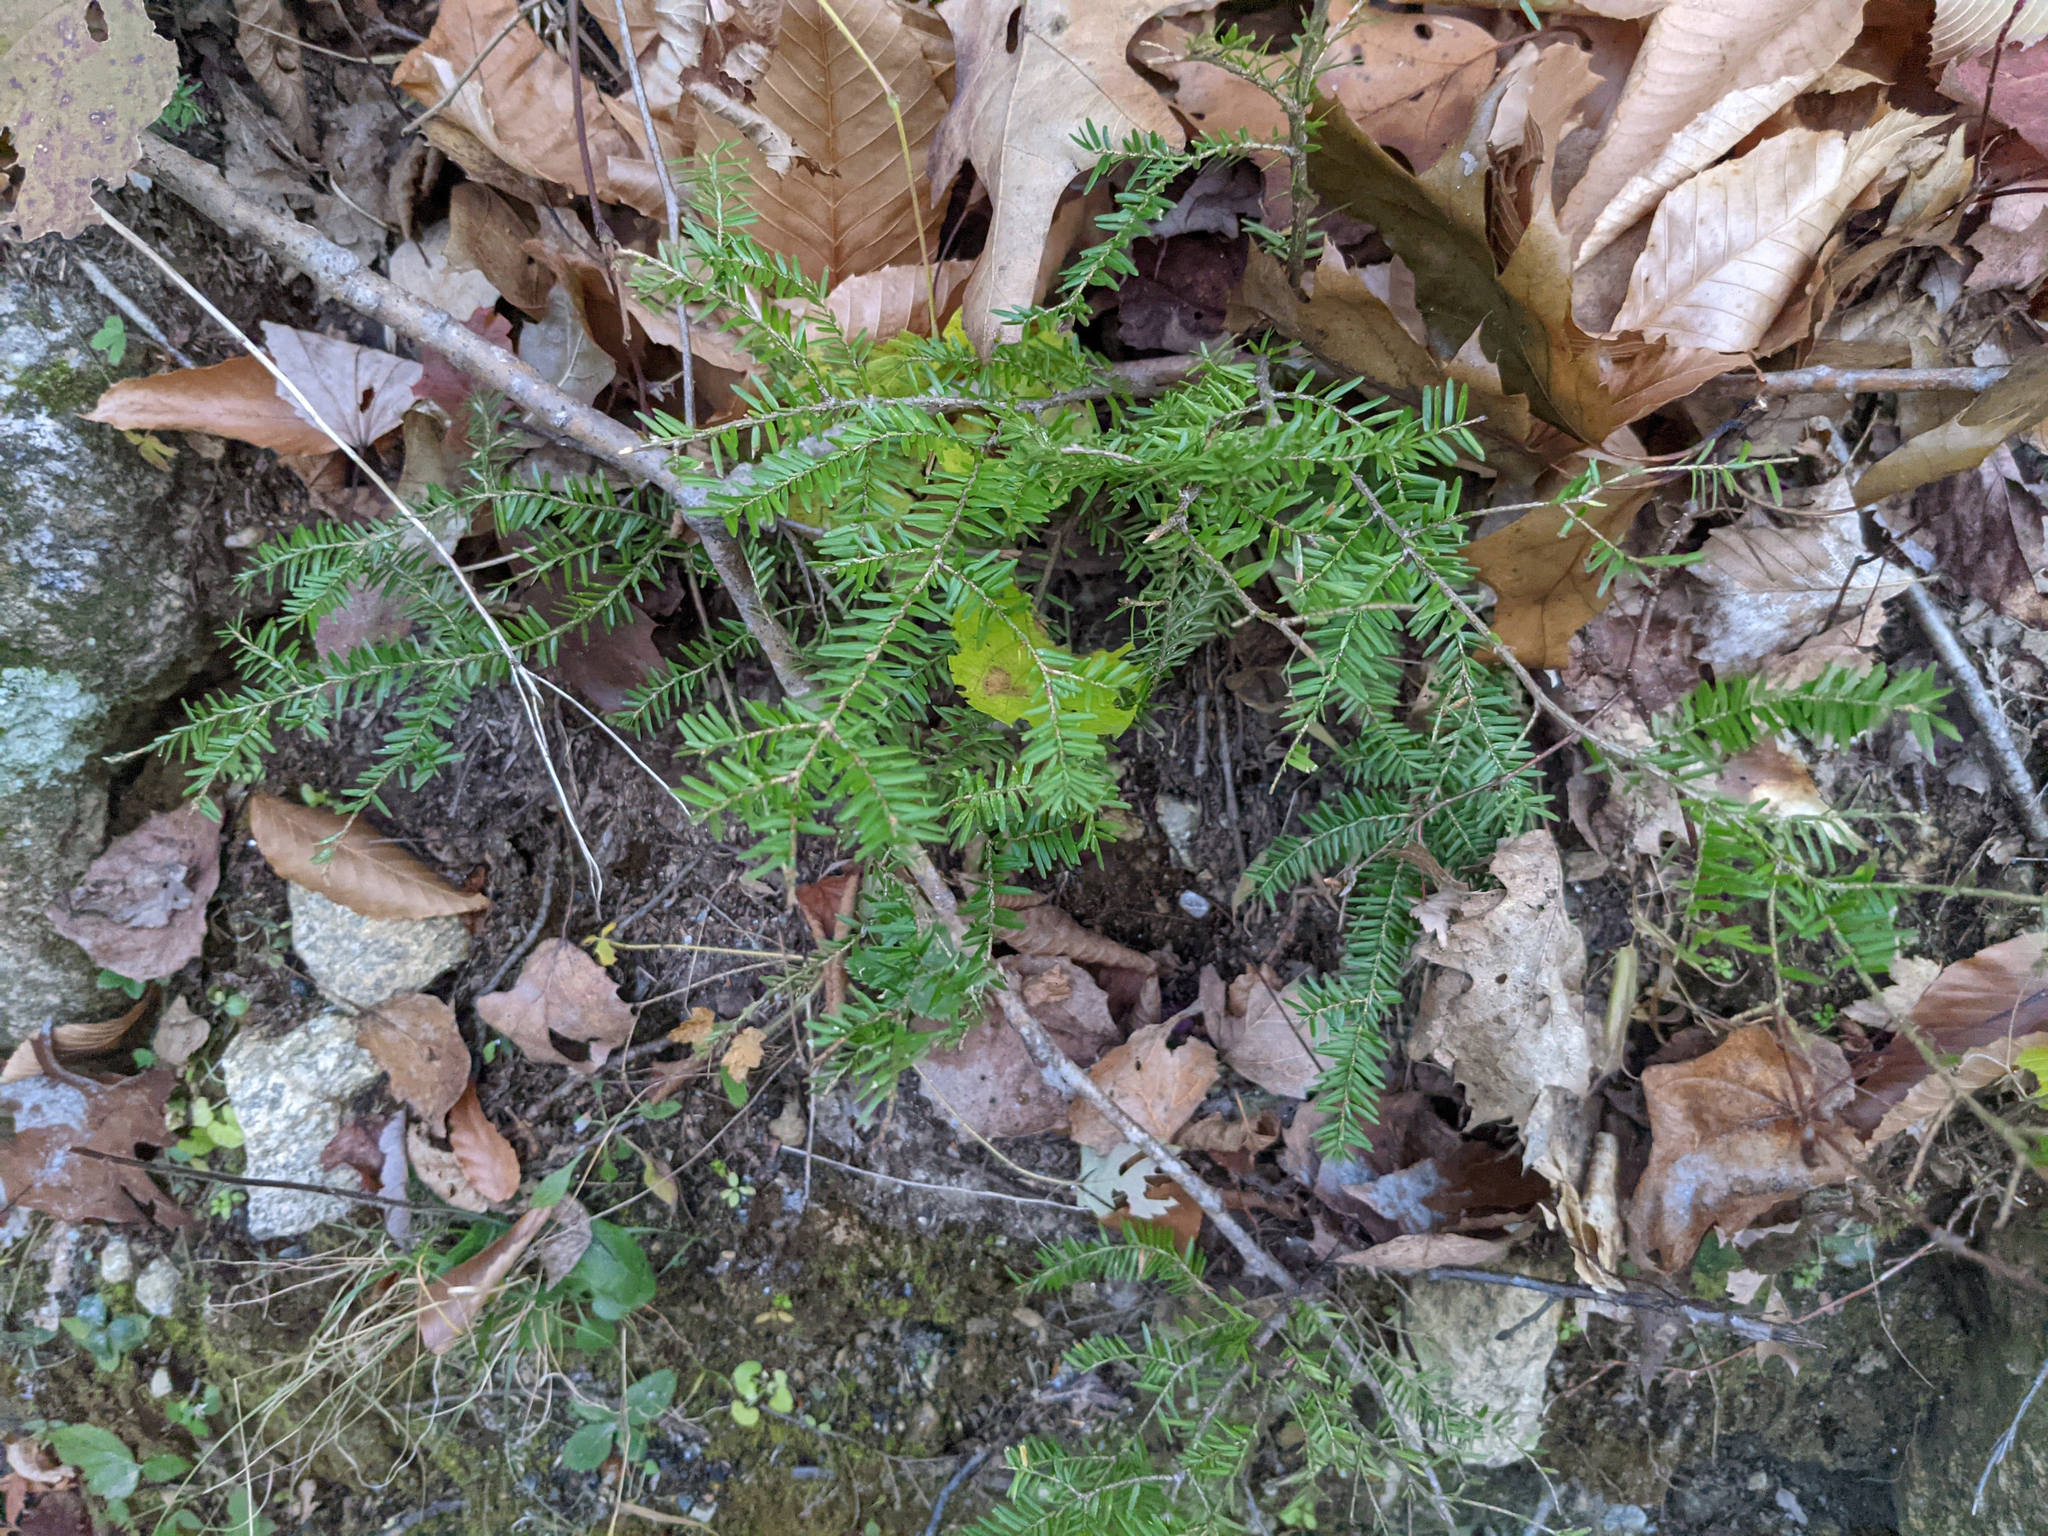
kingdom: Plantae
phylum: Tracheophyta
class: Pinopsida
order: Pinales
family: Pinaceae
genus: Tsuga
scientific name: Tsuga canadensis
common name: Eastern hemlock
